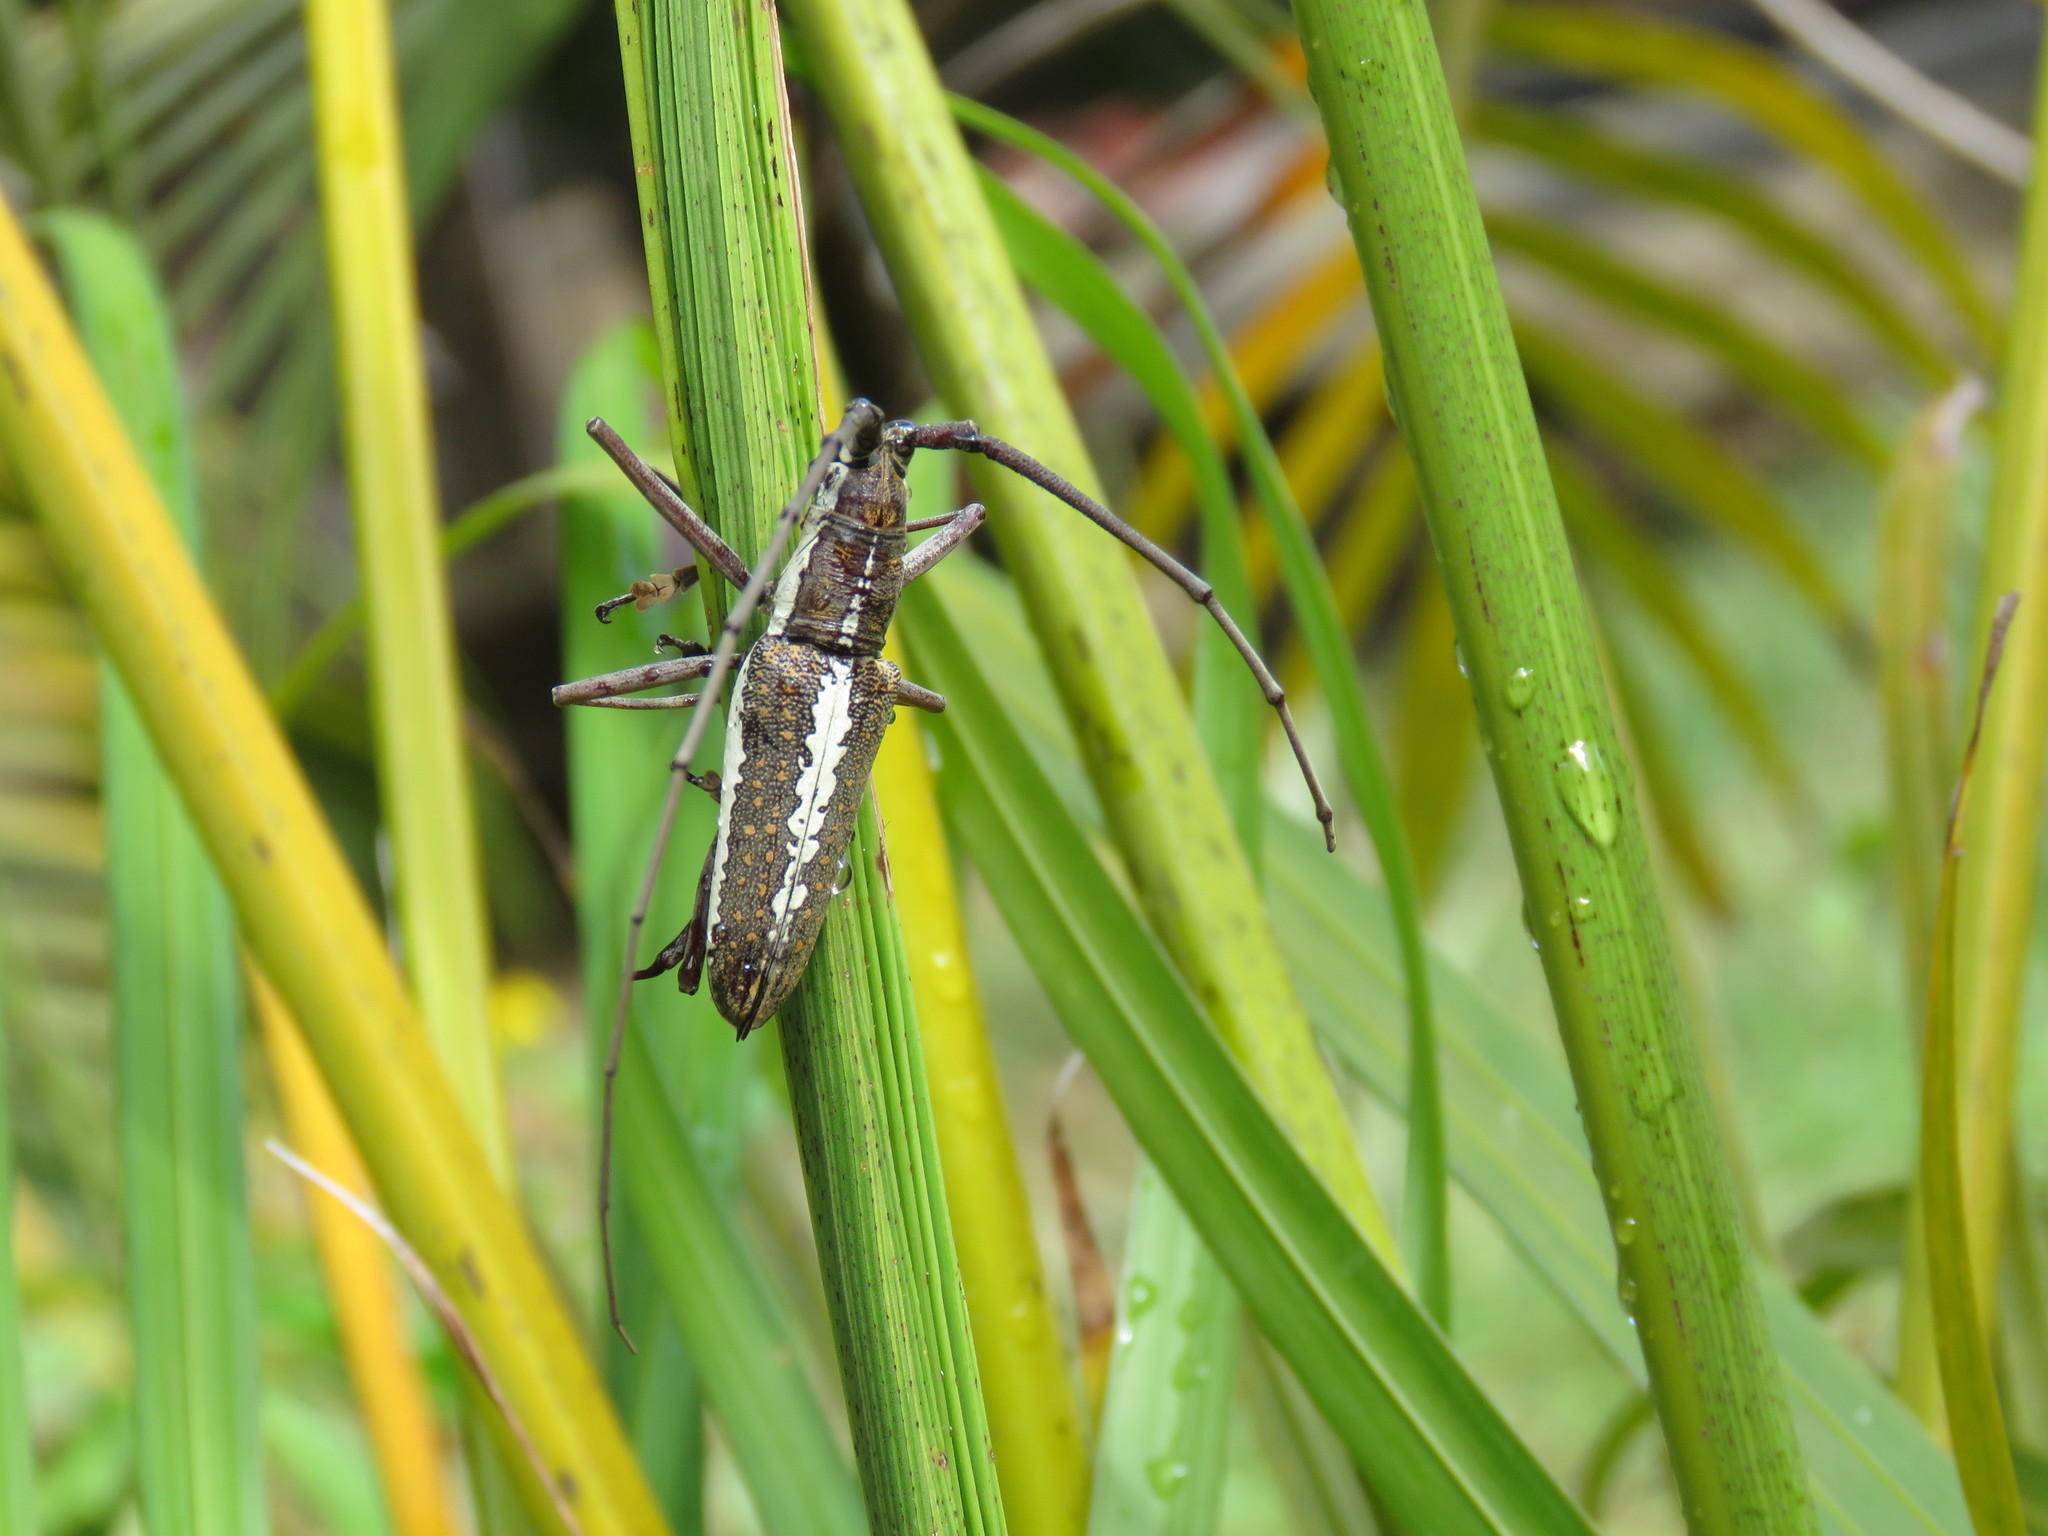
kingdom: Animalia
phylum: Arthropoda
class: Insecta
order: Coleoptera
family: Cerambycidae
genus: Neoptychodes
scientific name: Neoptychodes trilineatus
